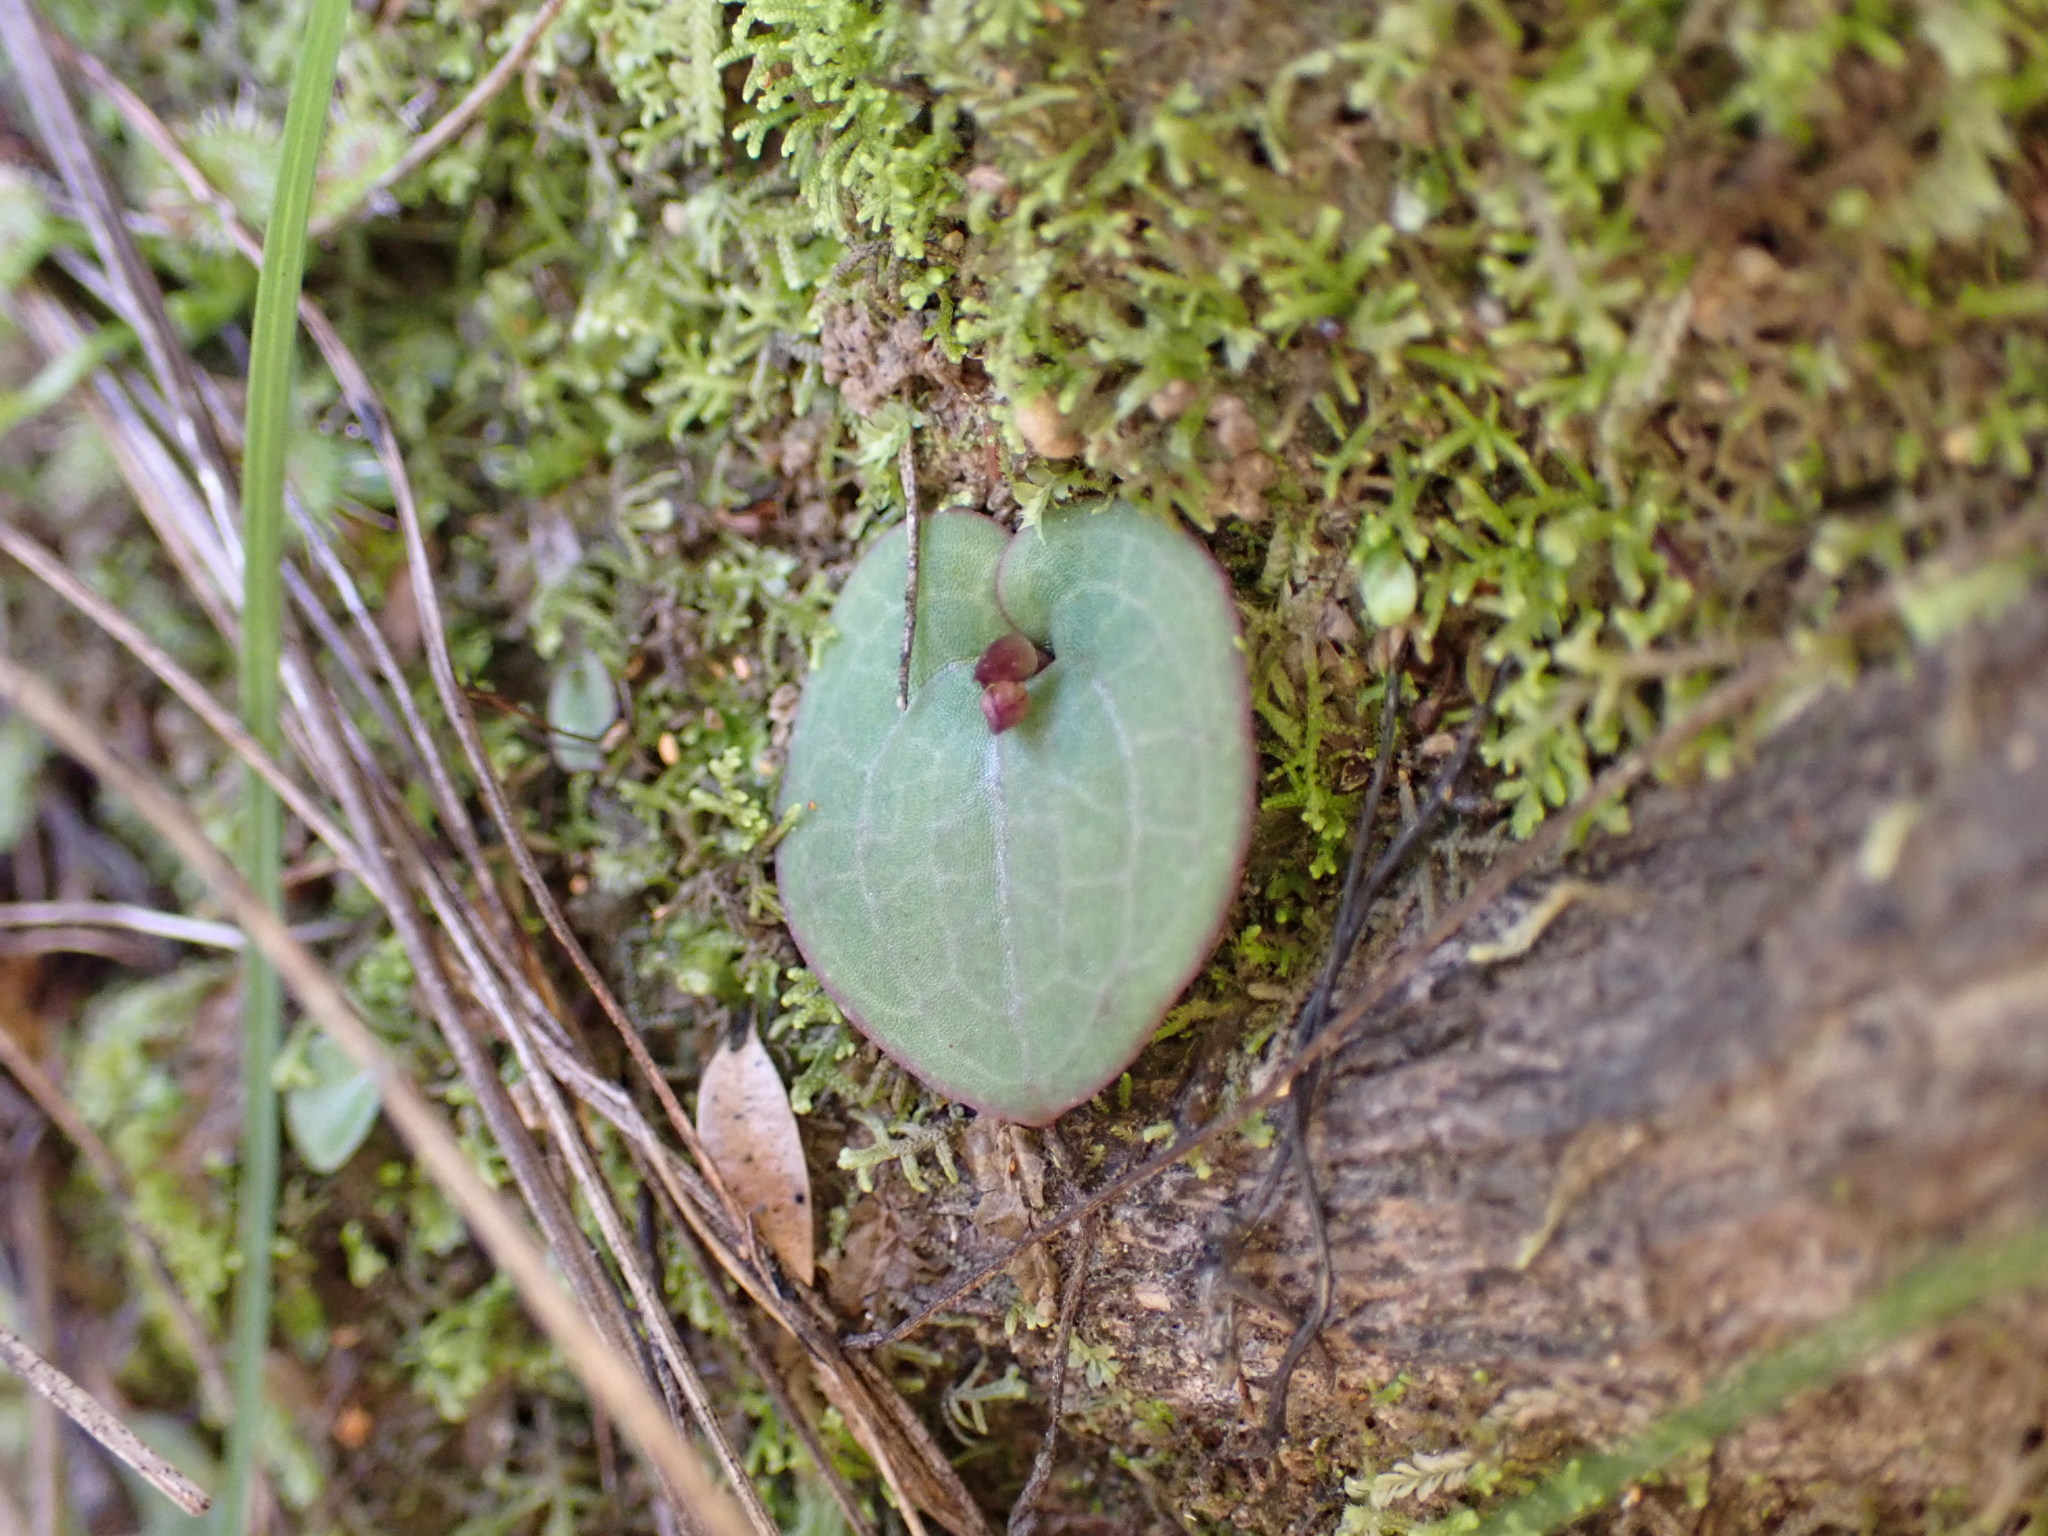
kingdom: Plantae
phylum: Tracheophyta
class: Liliopsida
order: Asparagales
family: Orchidaceae
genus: Cyrtostylis
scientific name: Cyrtostylis rotundifolia
